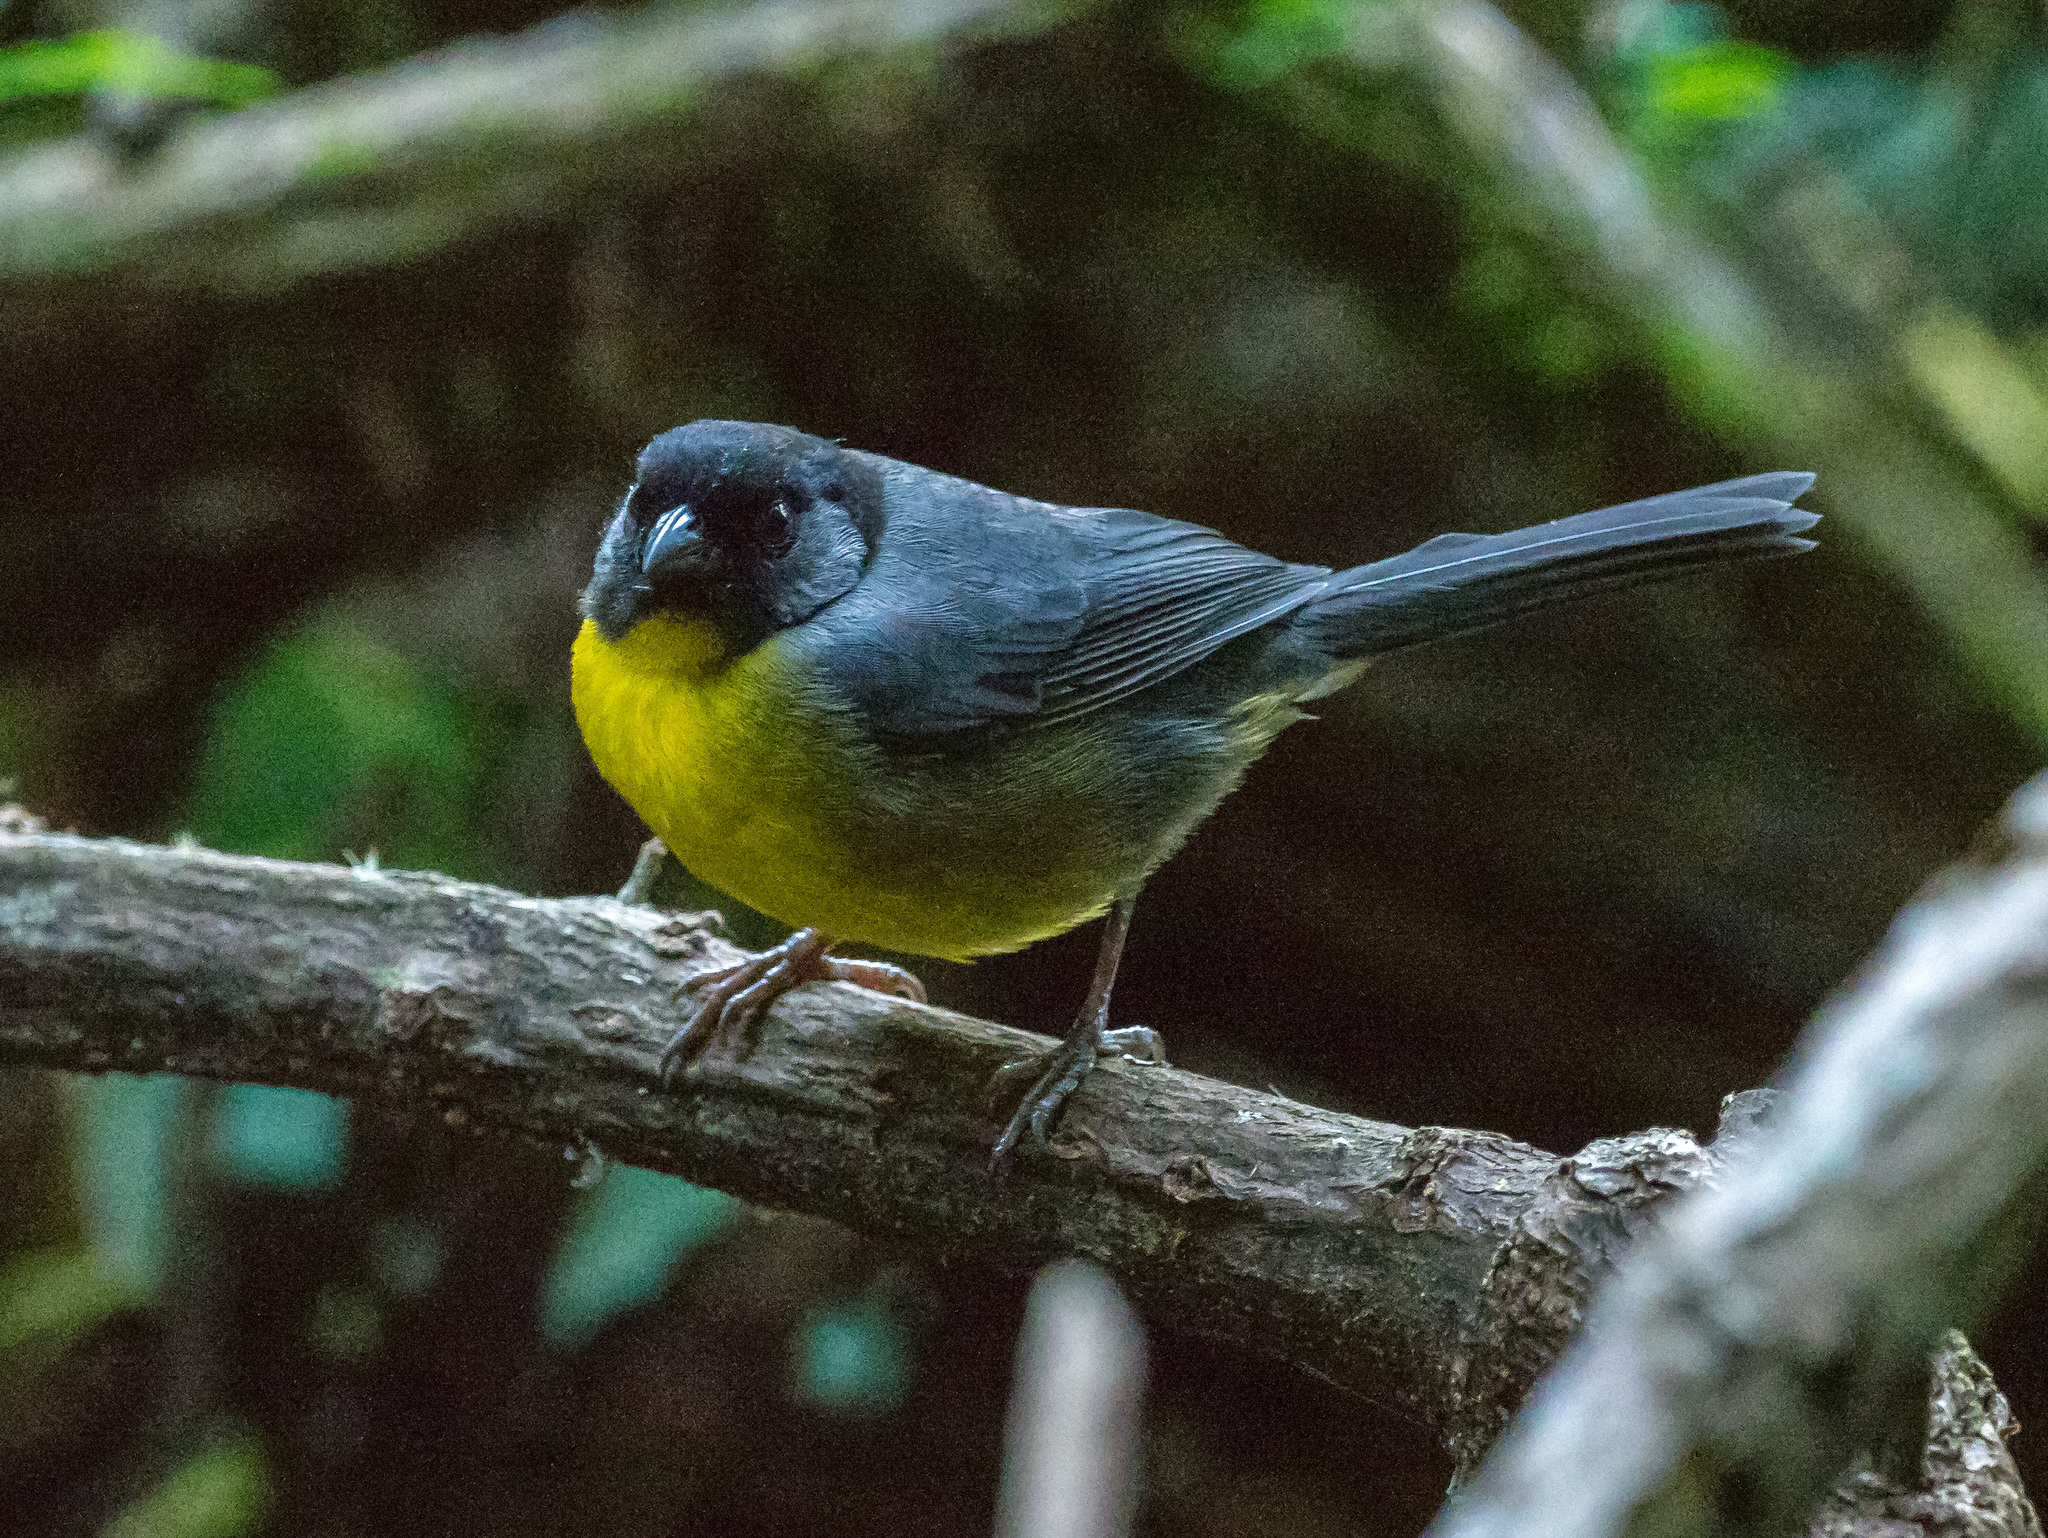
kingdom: Animalia
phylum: Chordata
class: Aves
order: Passeriformes
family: Passerellidae
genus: Atlapetes
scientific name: Atlapetes melanocephalus
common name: Santa marta brush-finch
